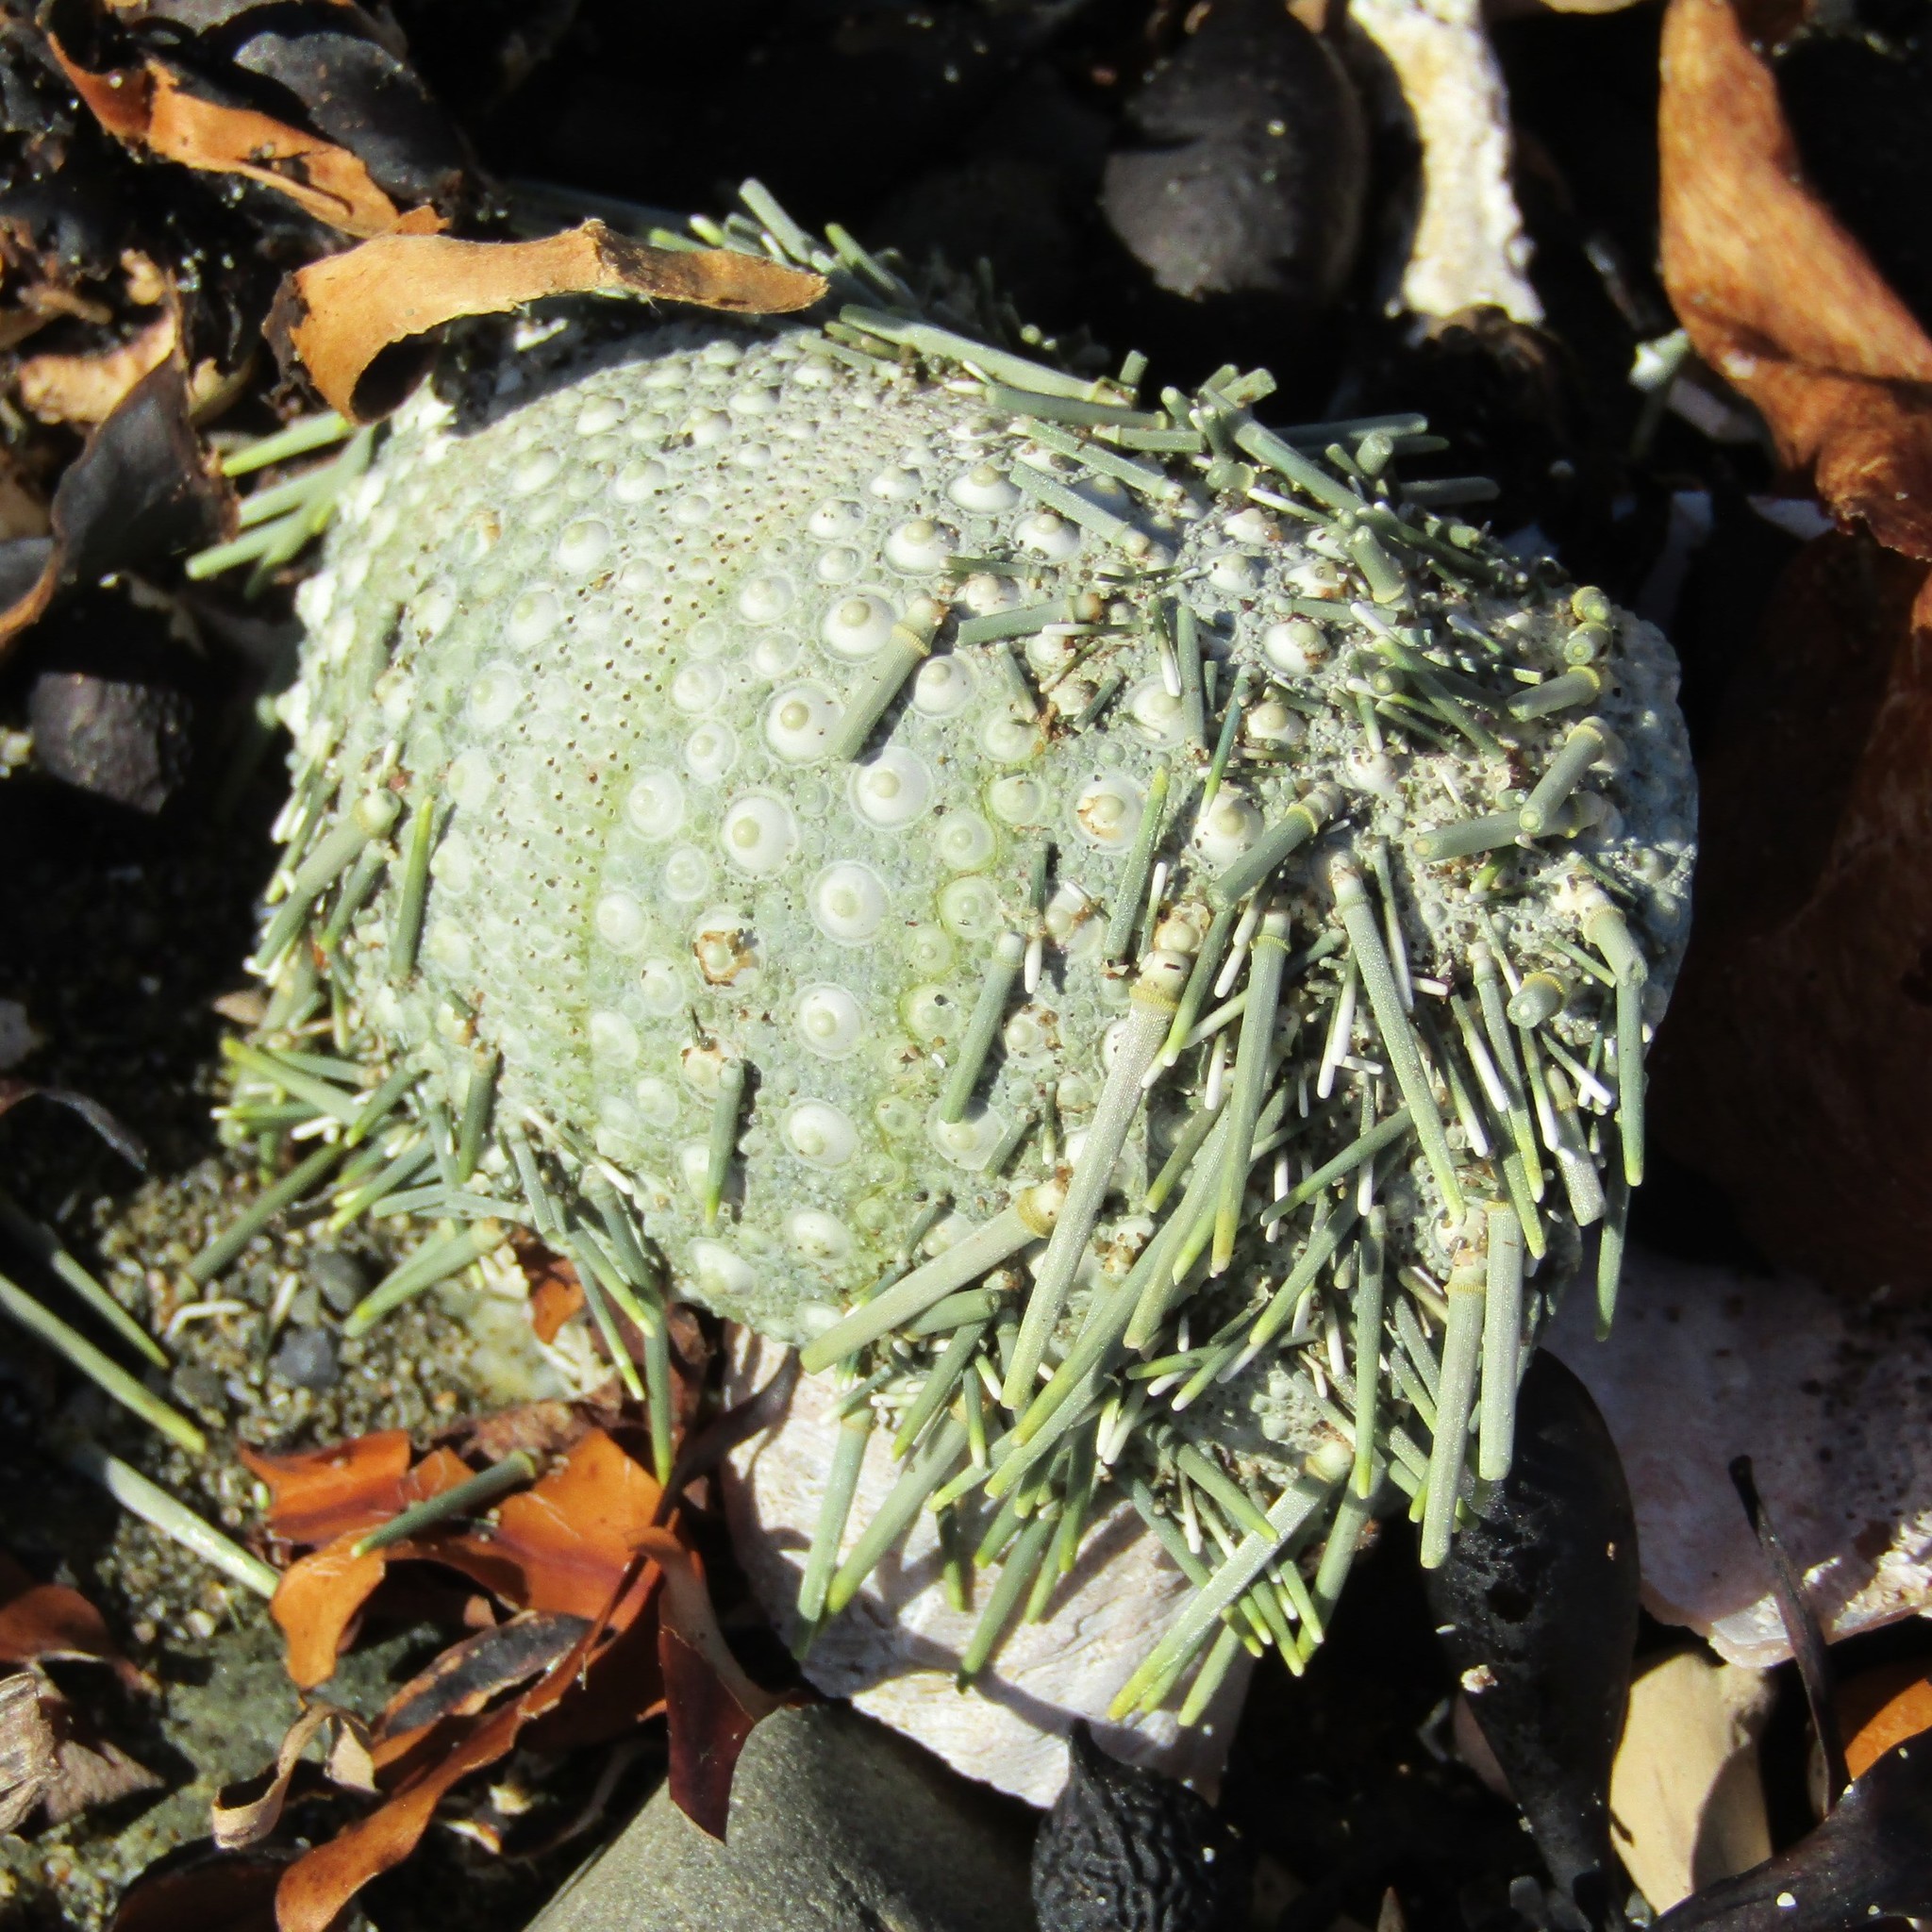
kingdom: Animalia
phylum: Echinodermata
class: Echinoidea
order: Camarodonta
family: Echinometridae
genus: Evechinus
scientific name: Evechinus chloroticus
